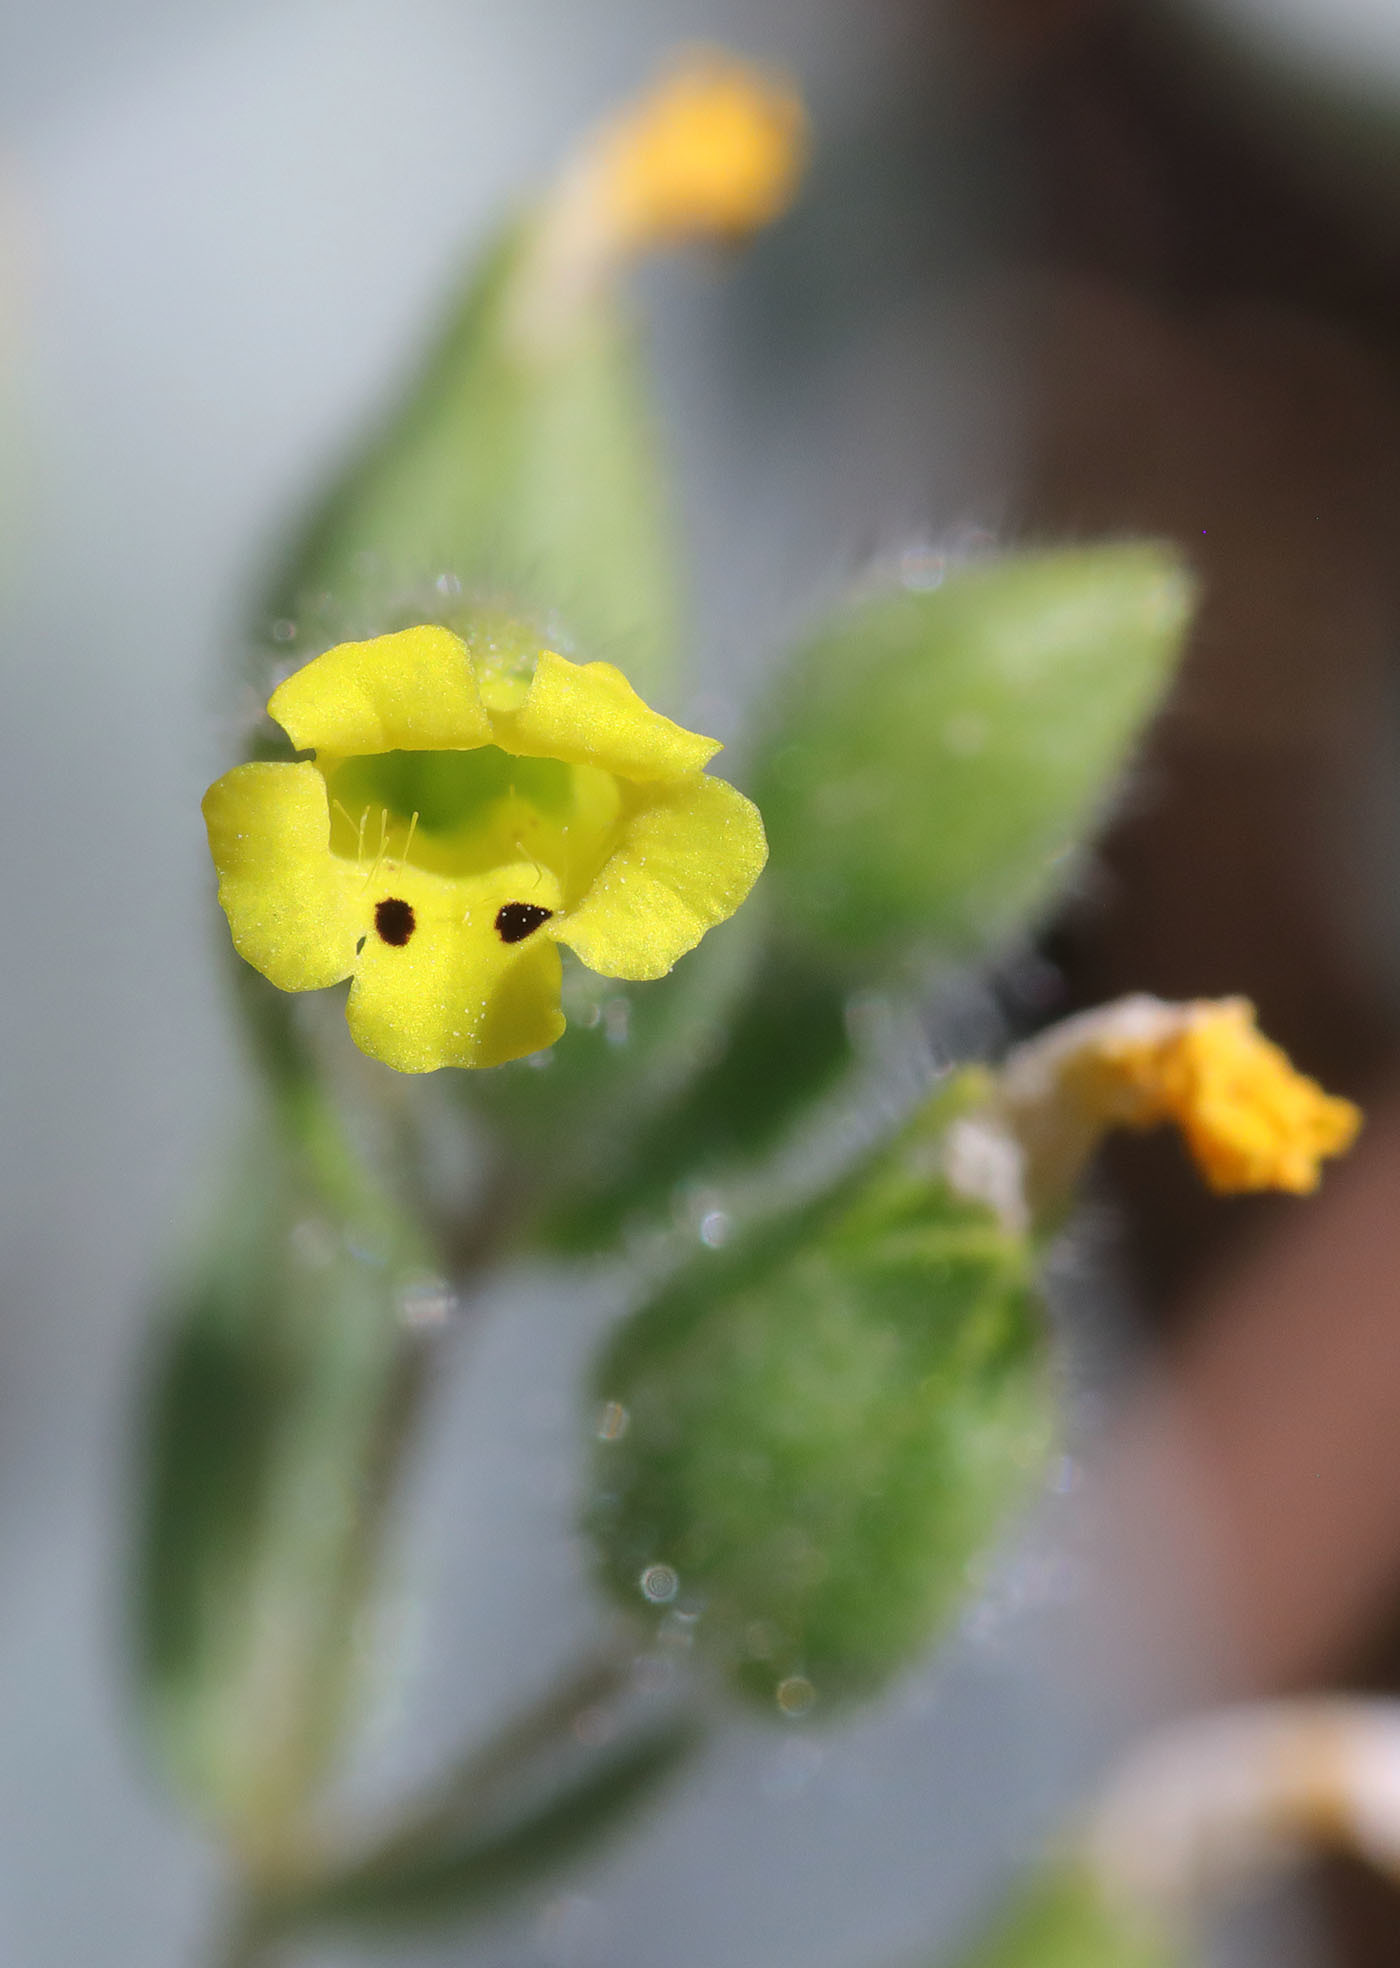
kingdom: Plantae
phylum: Tracheophyta
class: Magnoliopsida
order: Lamiales
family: Phrymaceae
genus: Mimetanthe
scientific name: Mimetanthe pilosa
